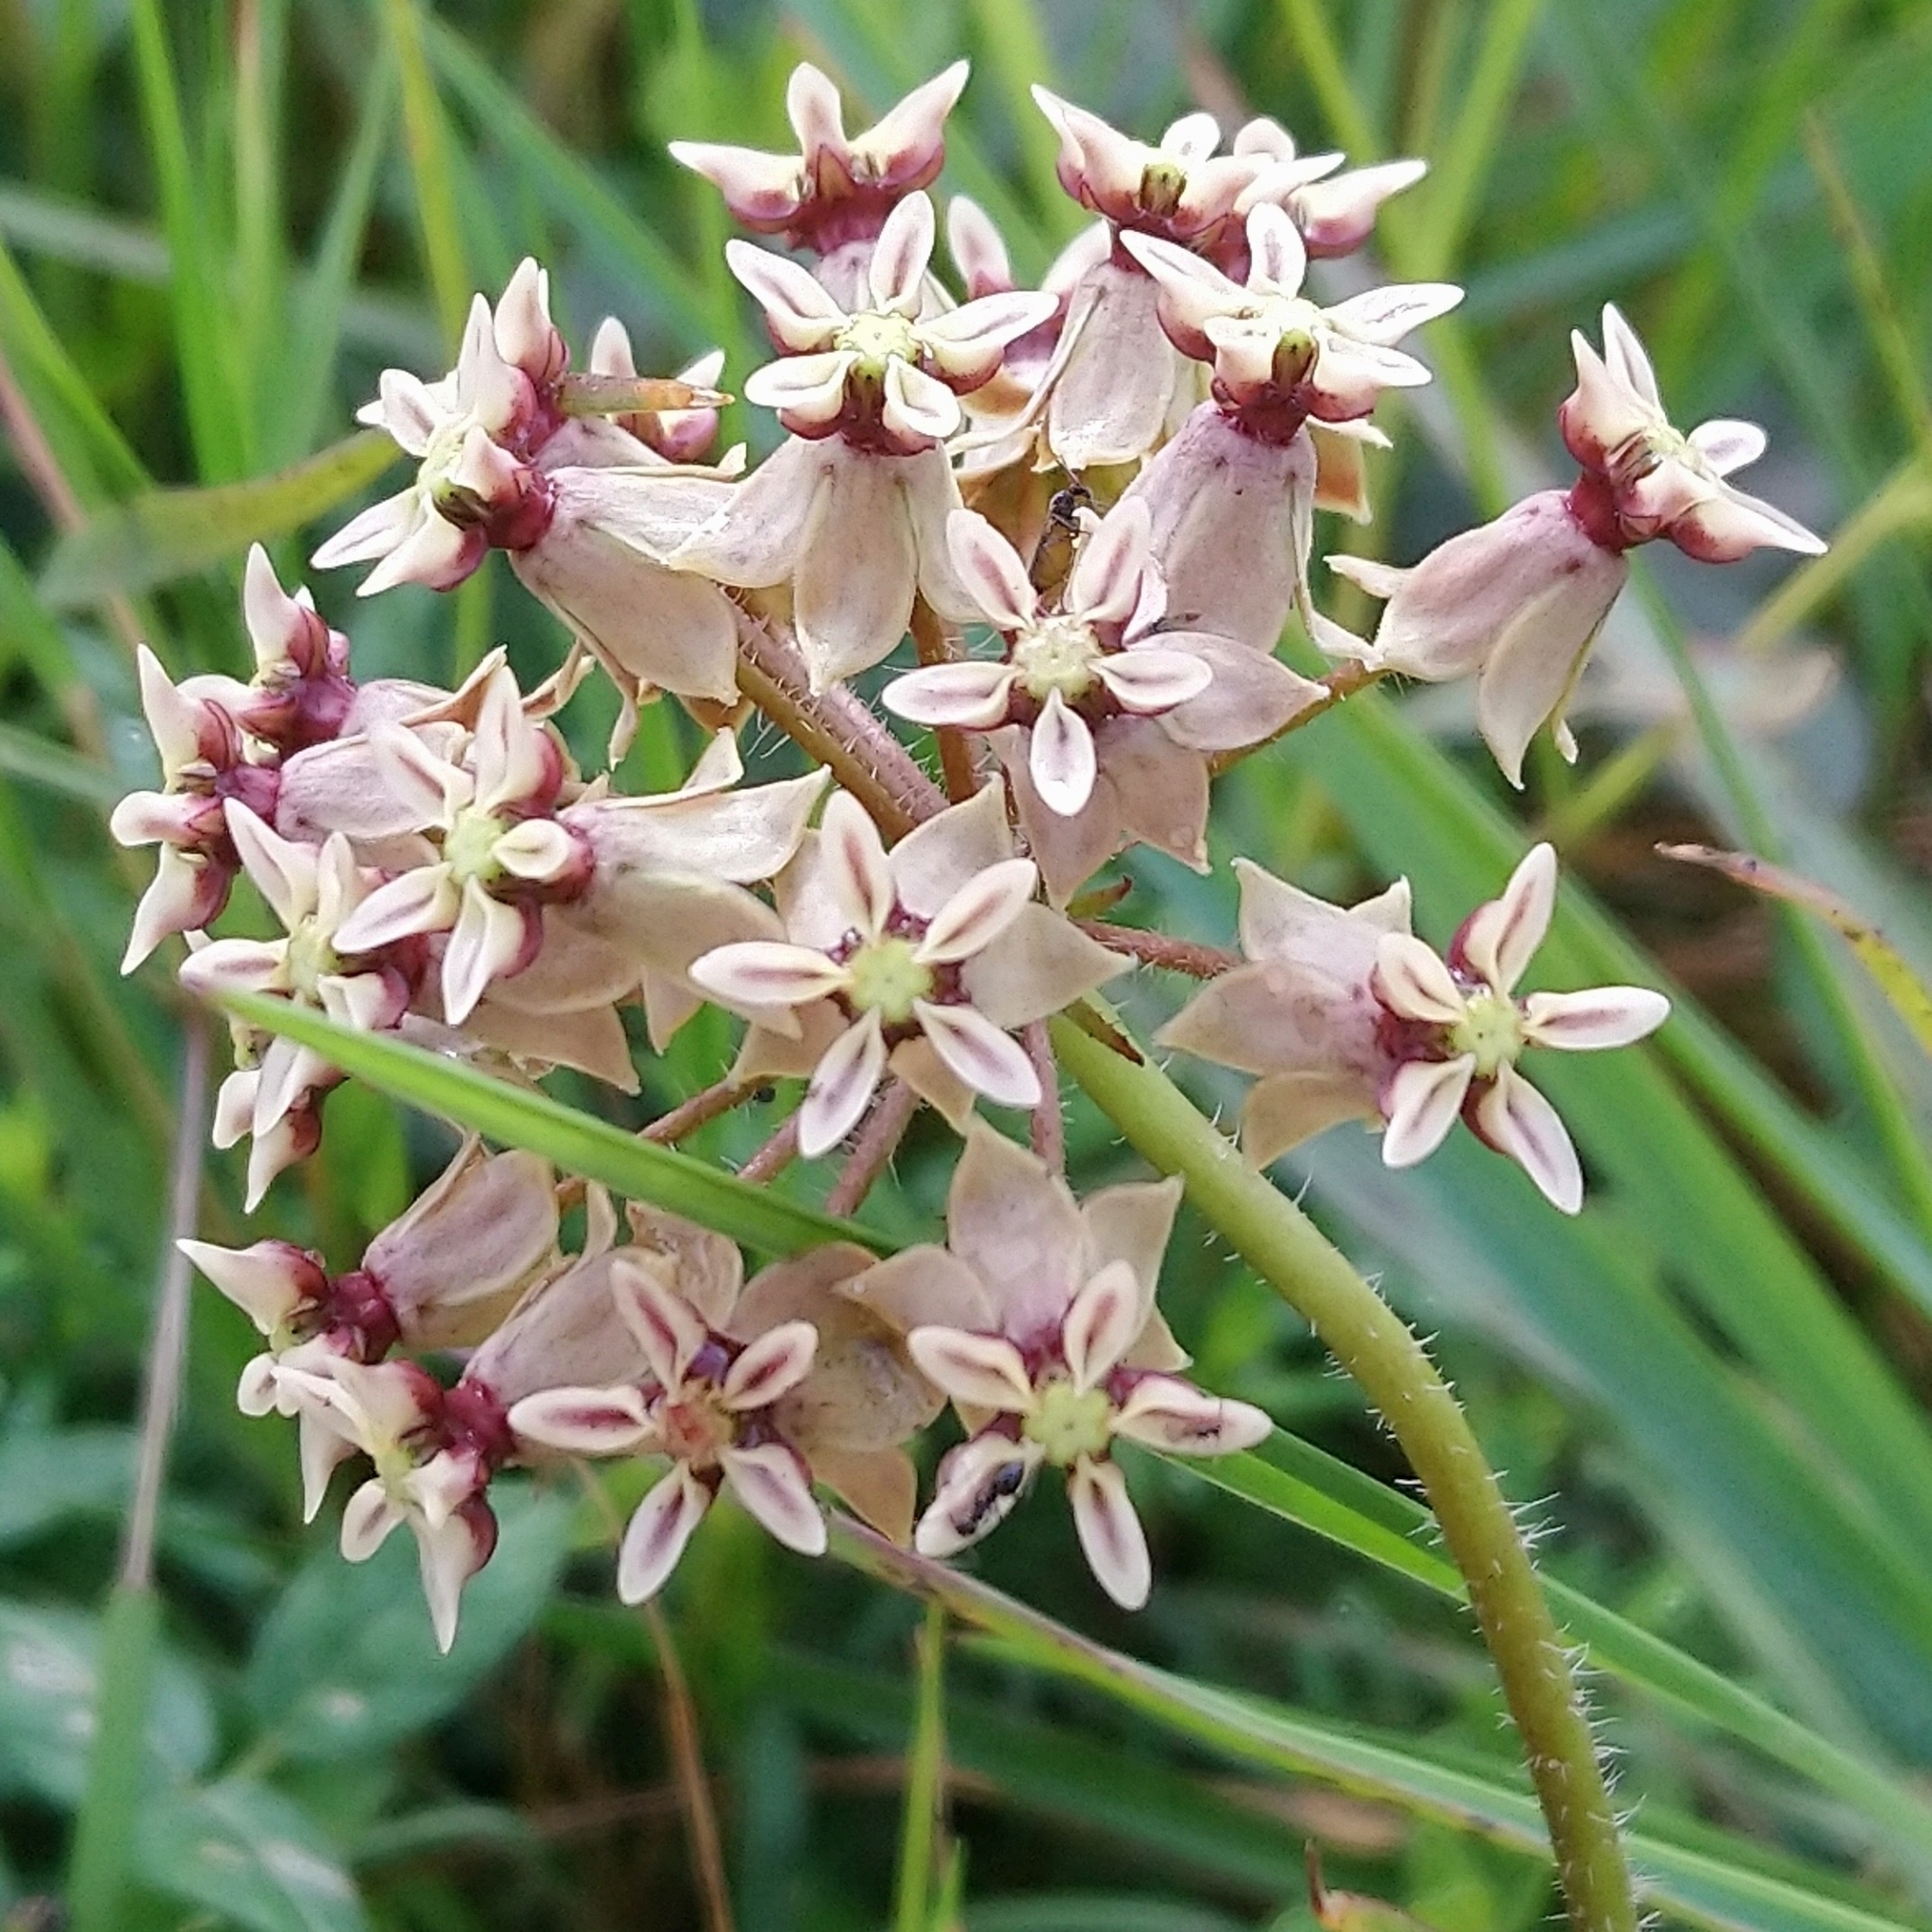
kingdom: Plantae
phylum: Tracheophyta
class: Magnoliopsida
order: Gentianales
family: Apocynaceae
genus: Asclepias
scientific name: Asclepias crispa
